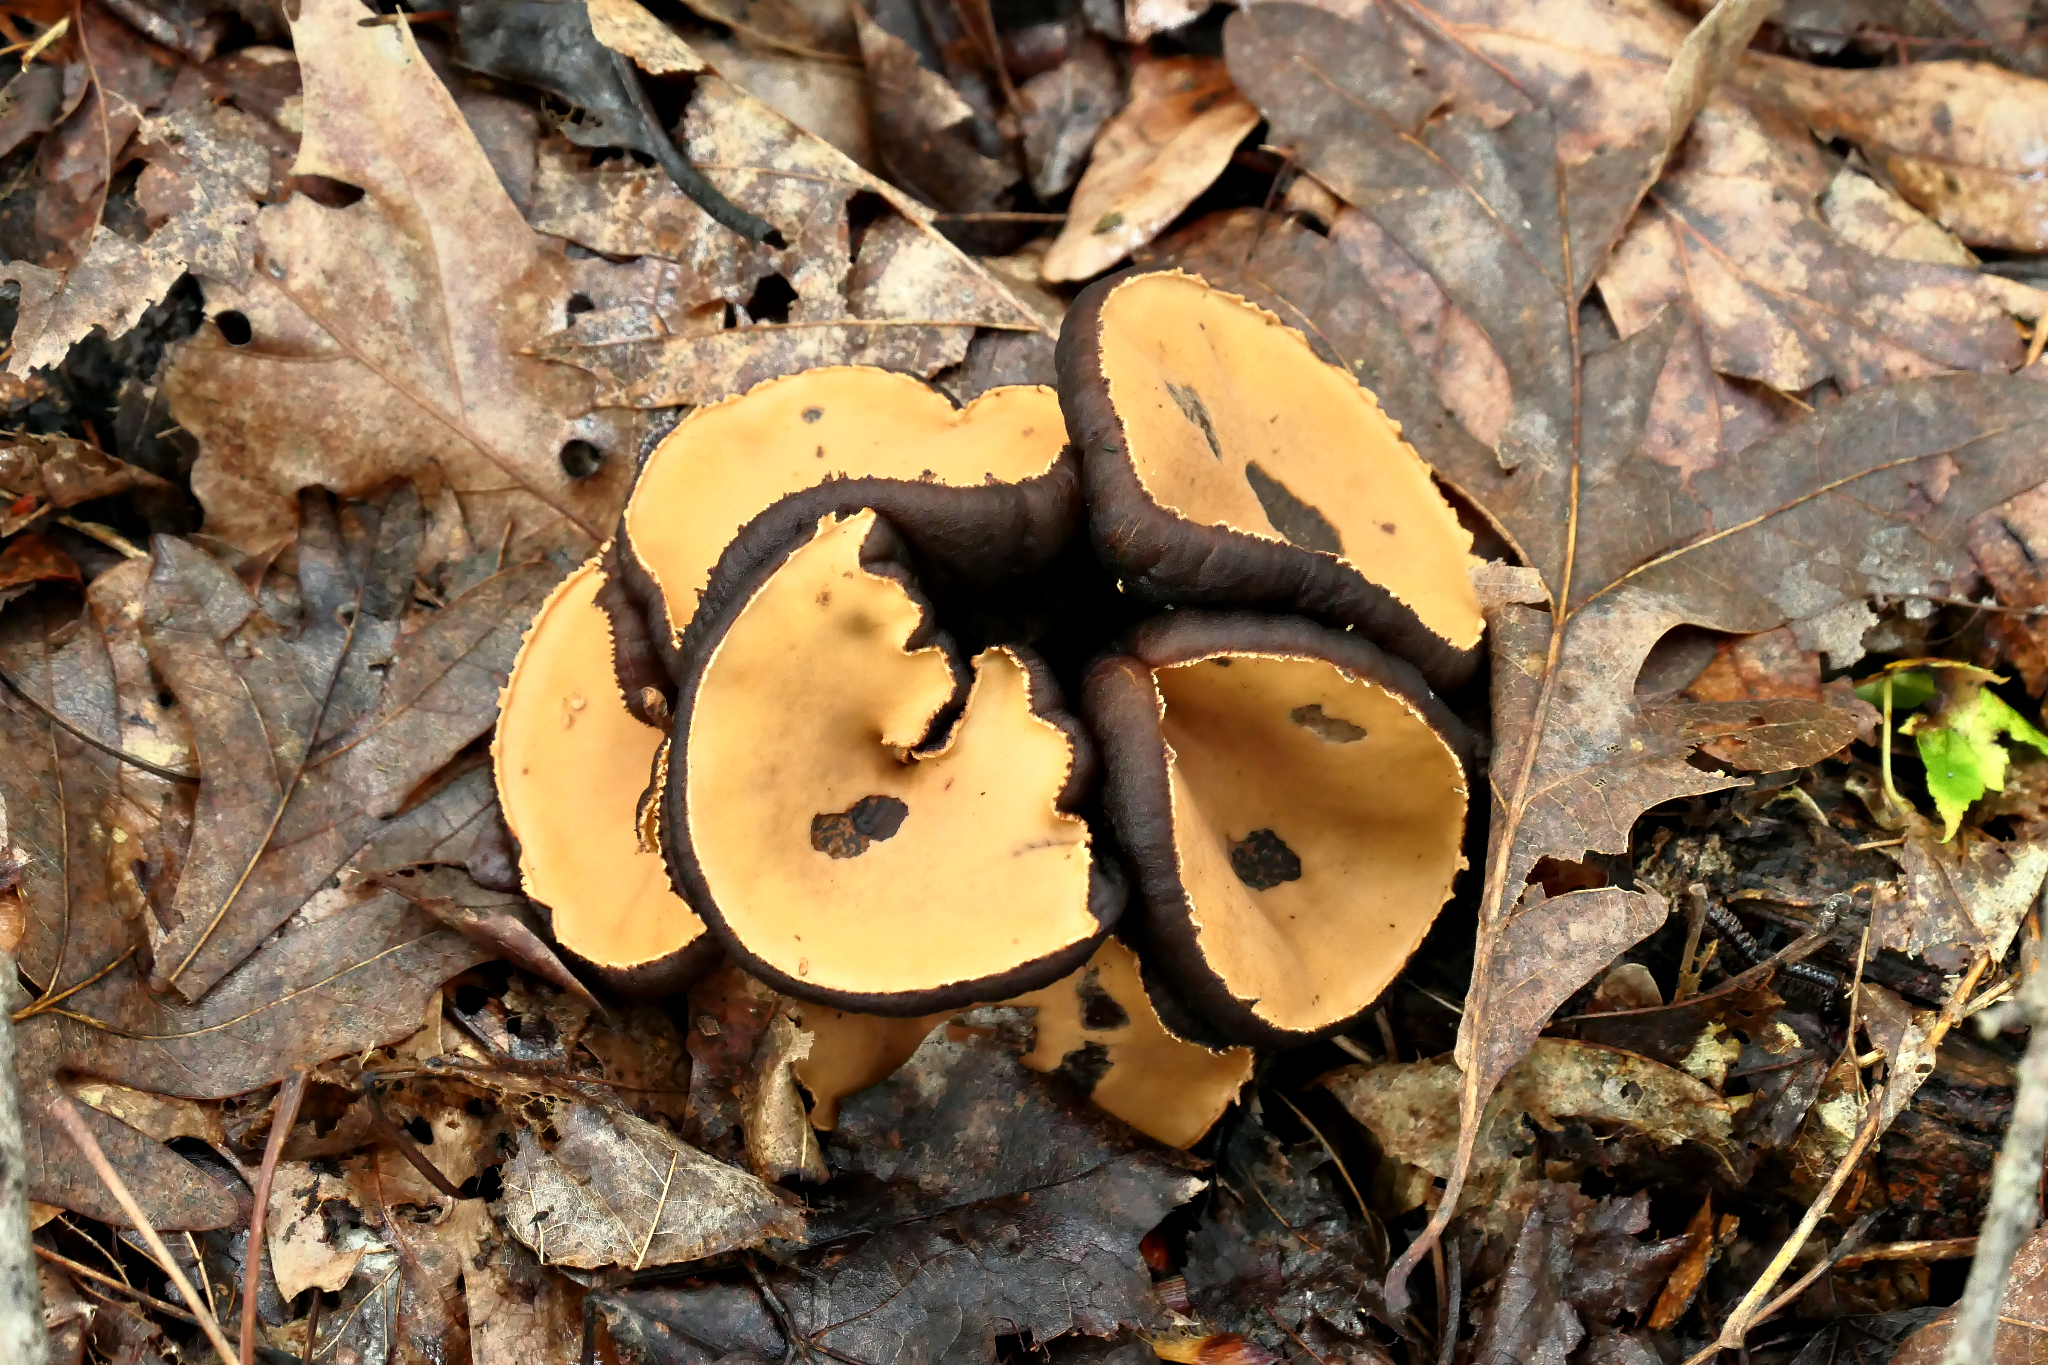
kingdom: Fungi
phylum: Ascomycota
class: Pezizomycetes
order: Pezizales
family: Sarcosomataceae
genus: Galiella
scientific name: Galiella rufa
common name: Hairy rubber cup
